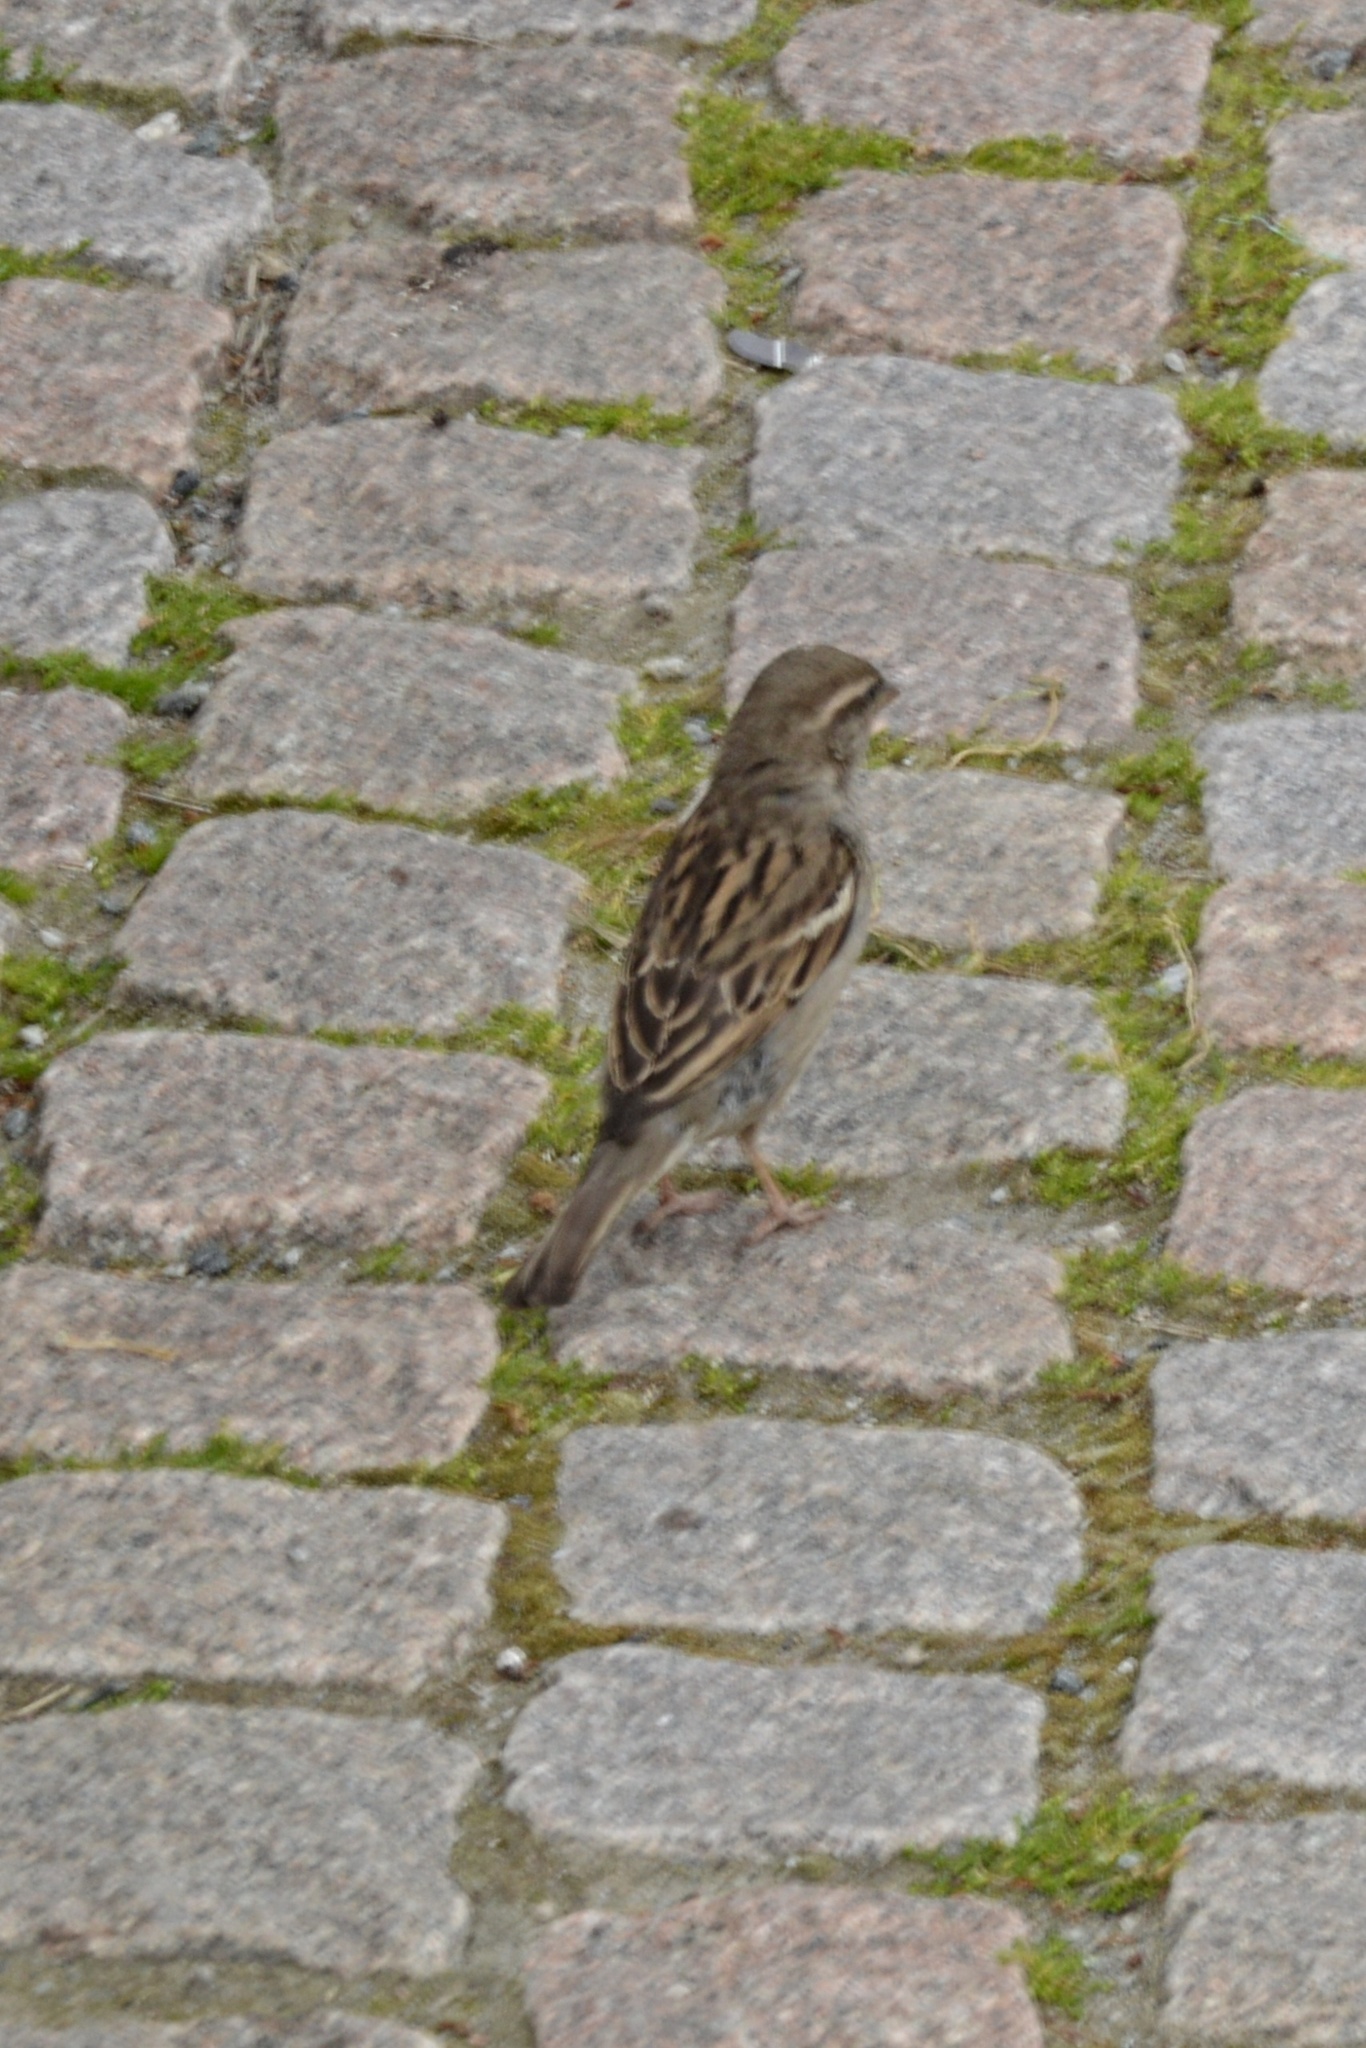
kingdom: Animalia
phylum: Chordata
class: Aves
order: Passeriformes
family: Passeridae
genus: Passer
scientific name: Passer domesticus
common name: House sparrow
